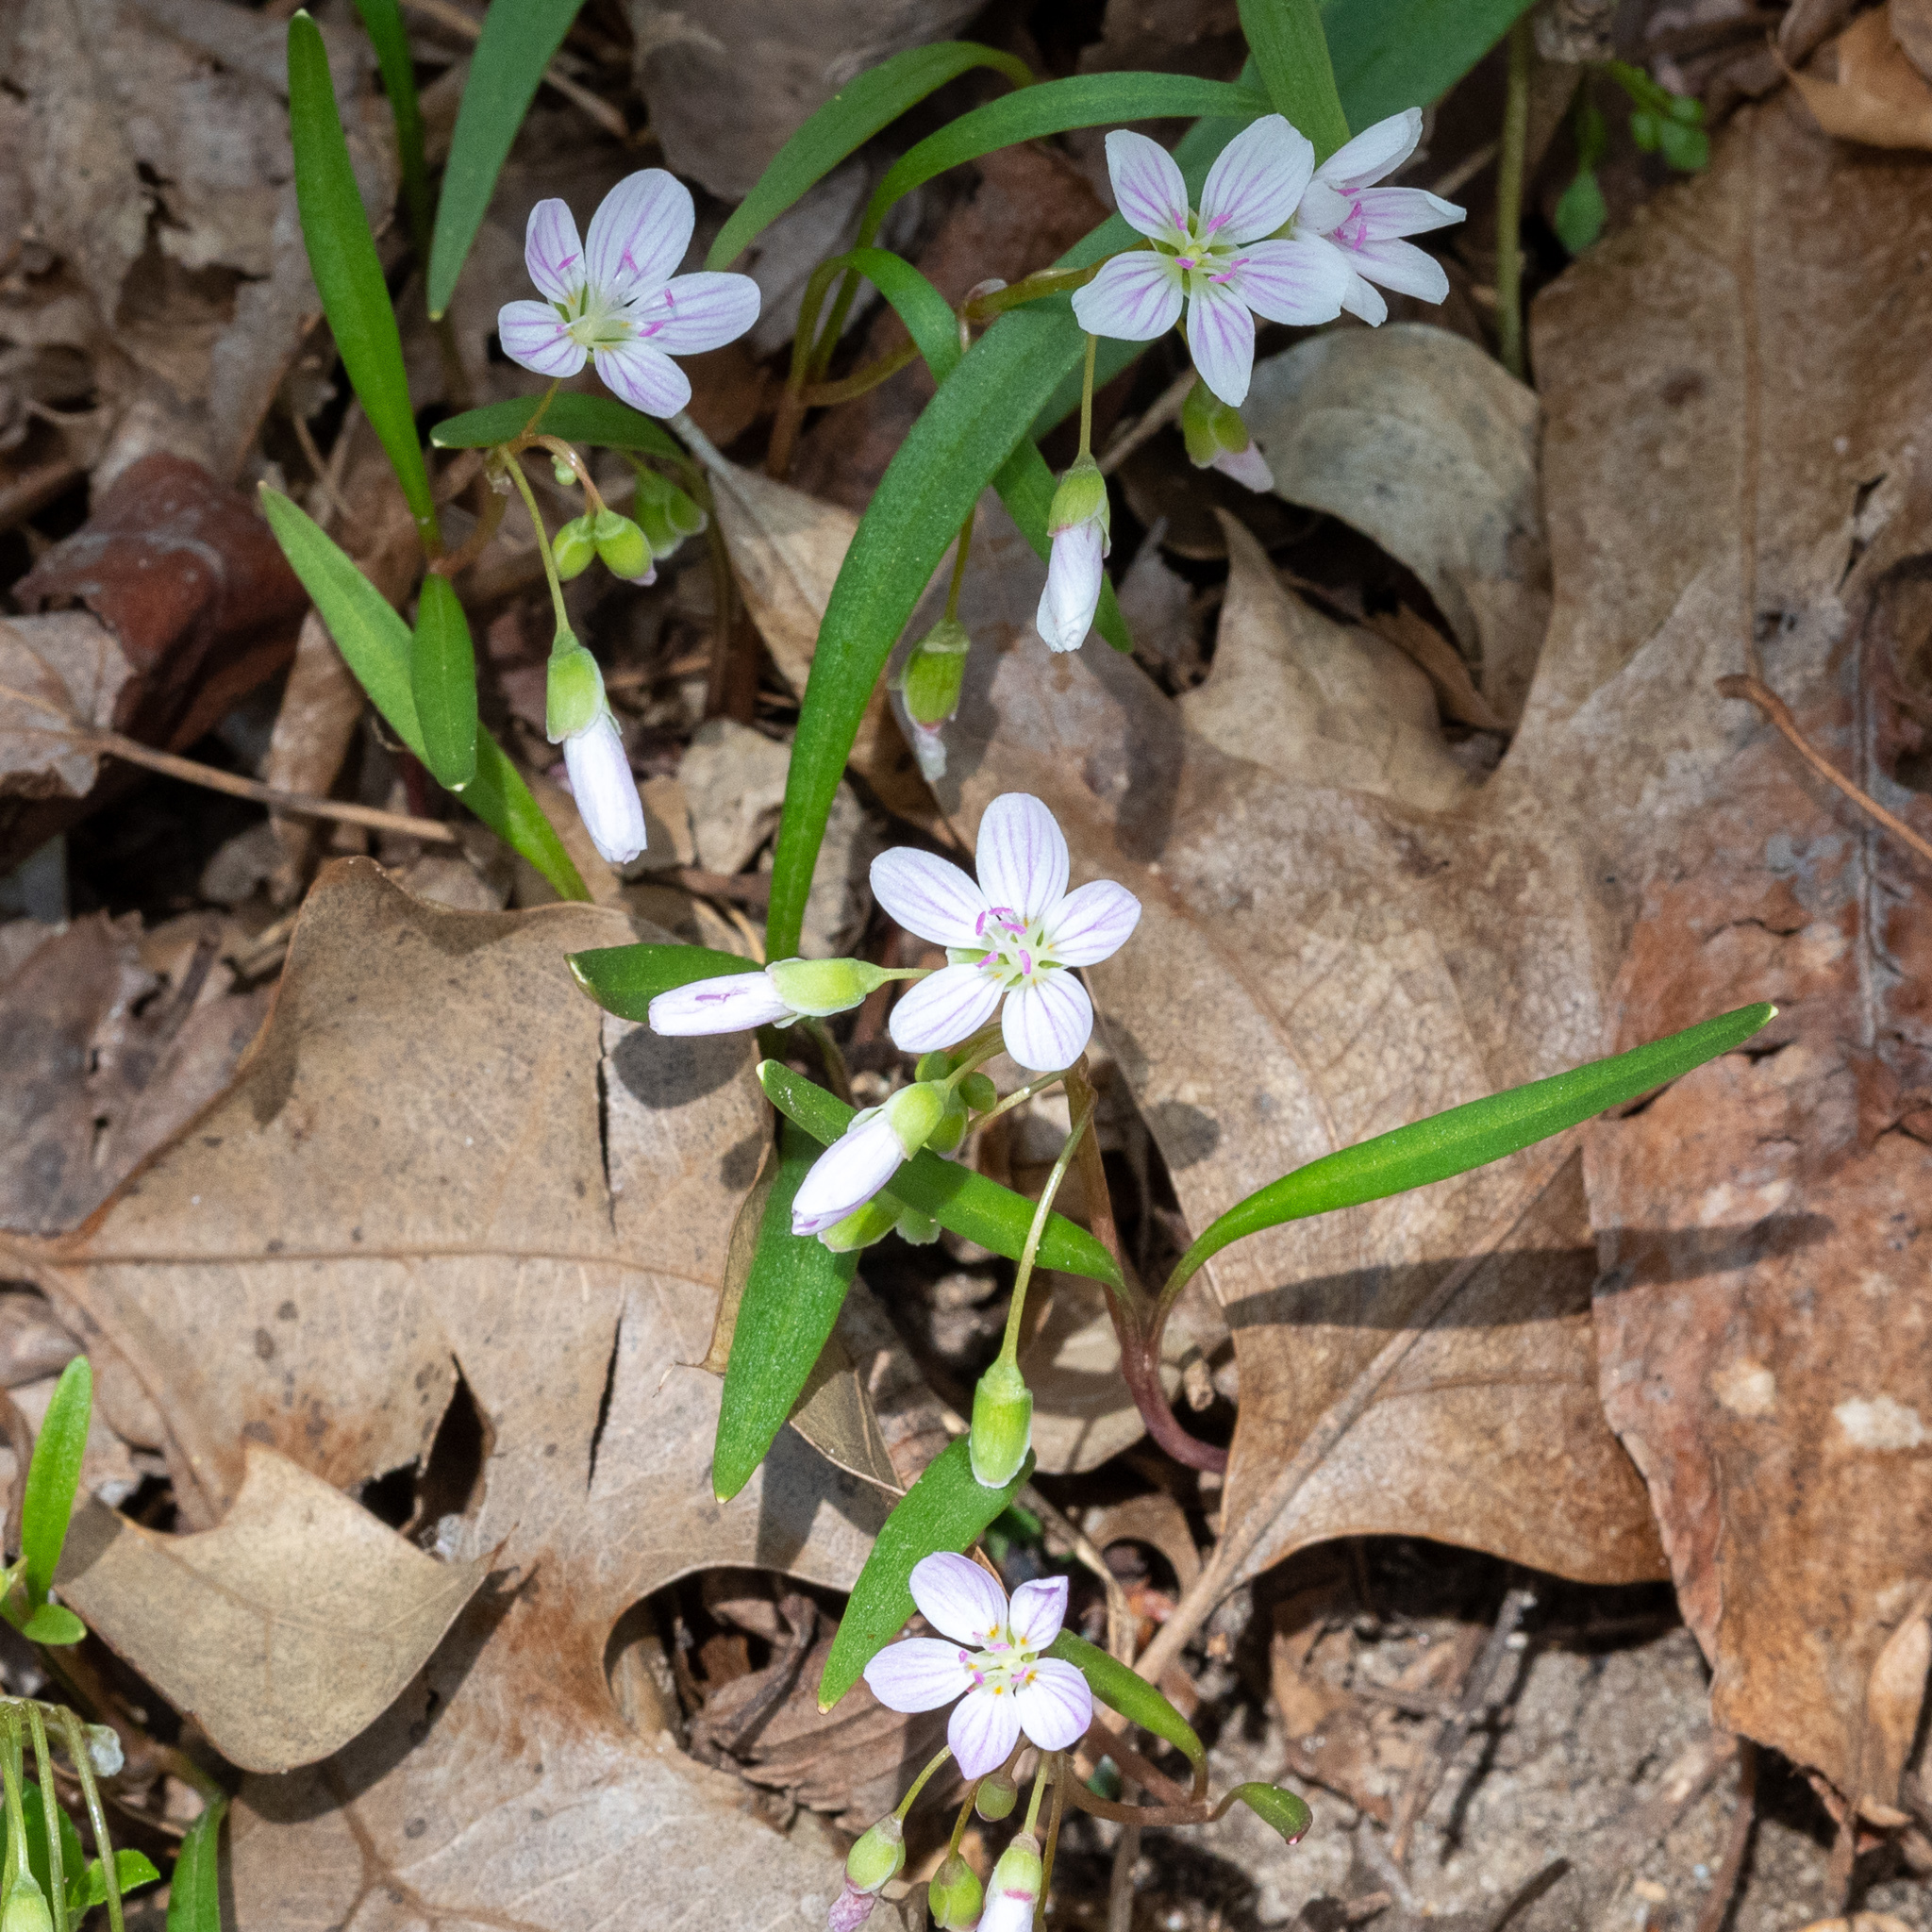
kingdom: Plantae
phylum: Tracheophyta
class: Magnoliopsida
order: Caryophyllales
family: Montiaceae
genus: Claytonia
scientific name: Claytonia virginica
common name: Virginia springbeauty
